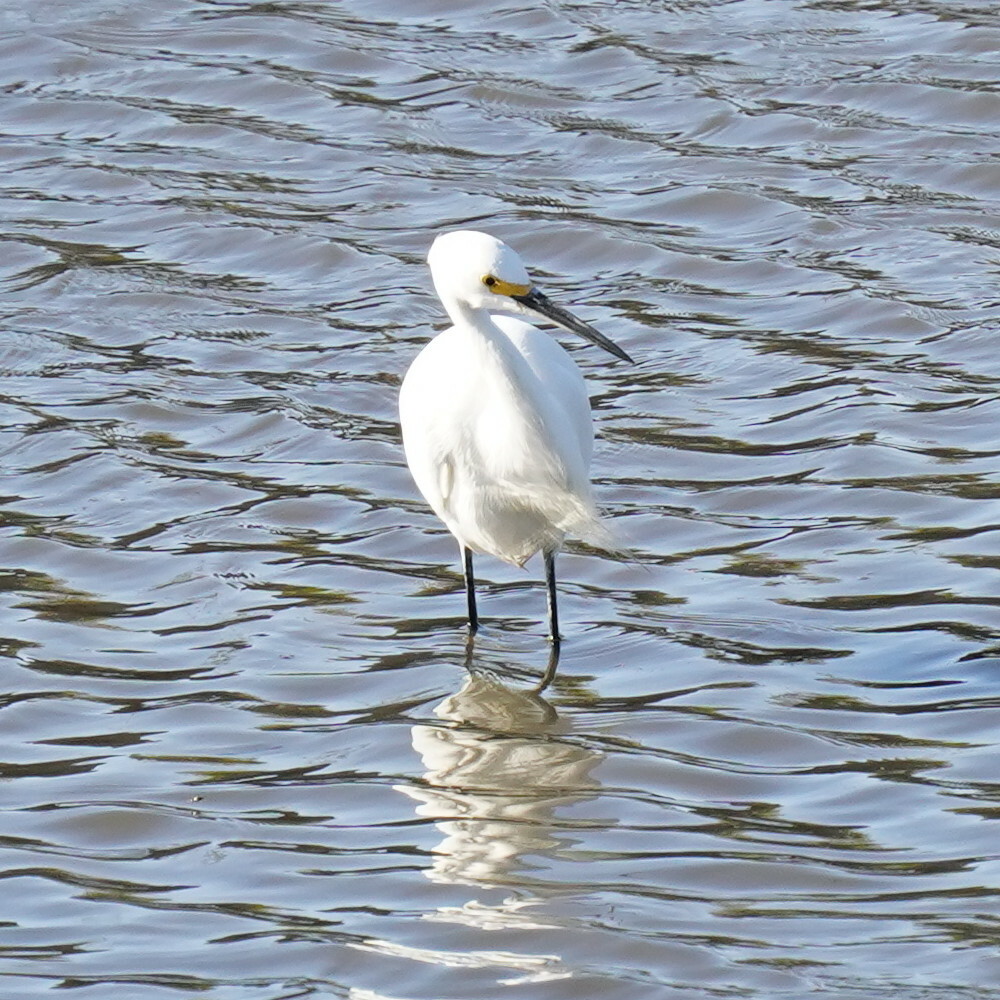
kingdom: Animalia
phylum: Chordata
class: Aves
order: Pelecaniformes
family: Ardeidae
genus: Egretta
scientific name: Egretta thula
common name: Snowy egret
